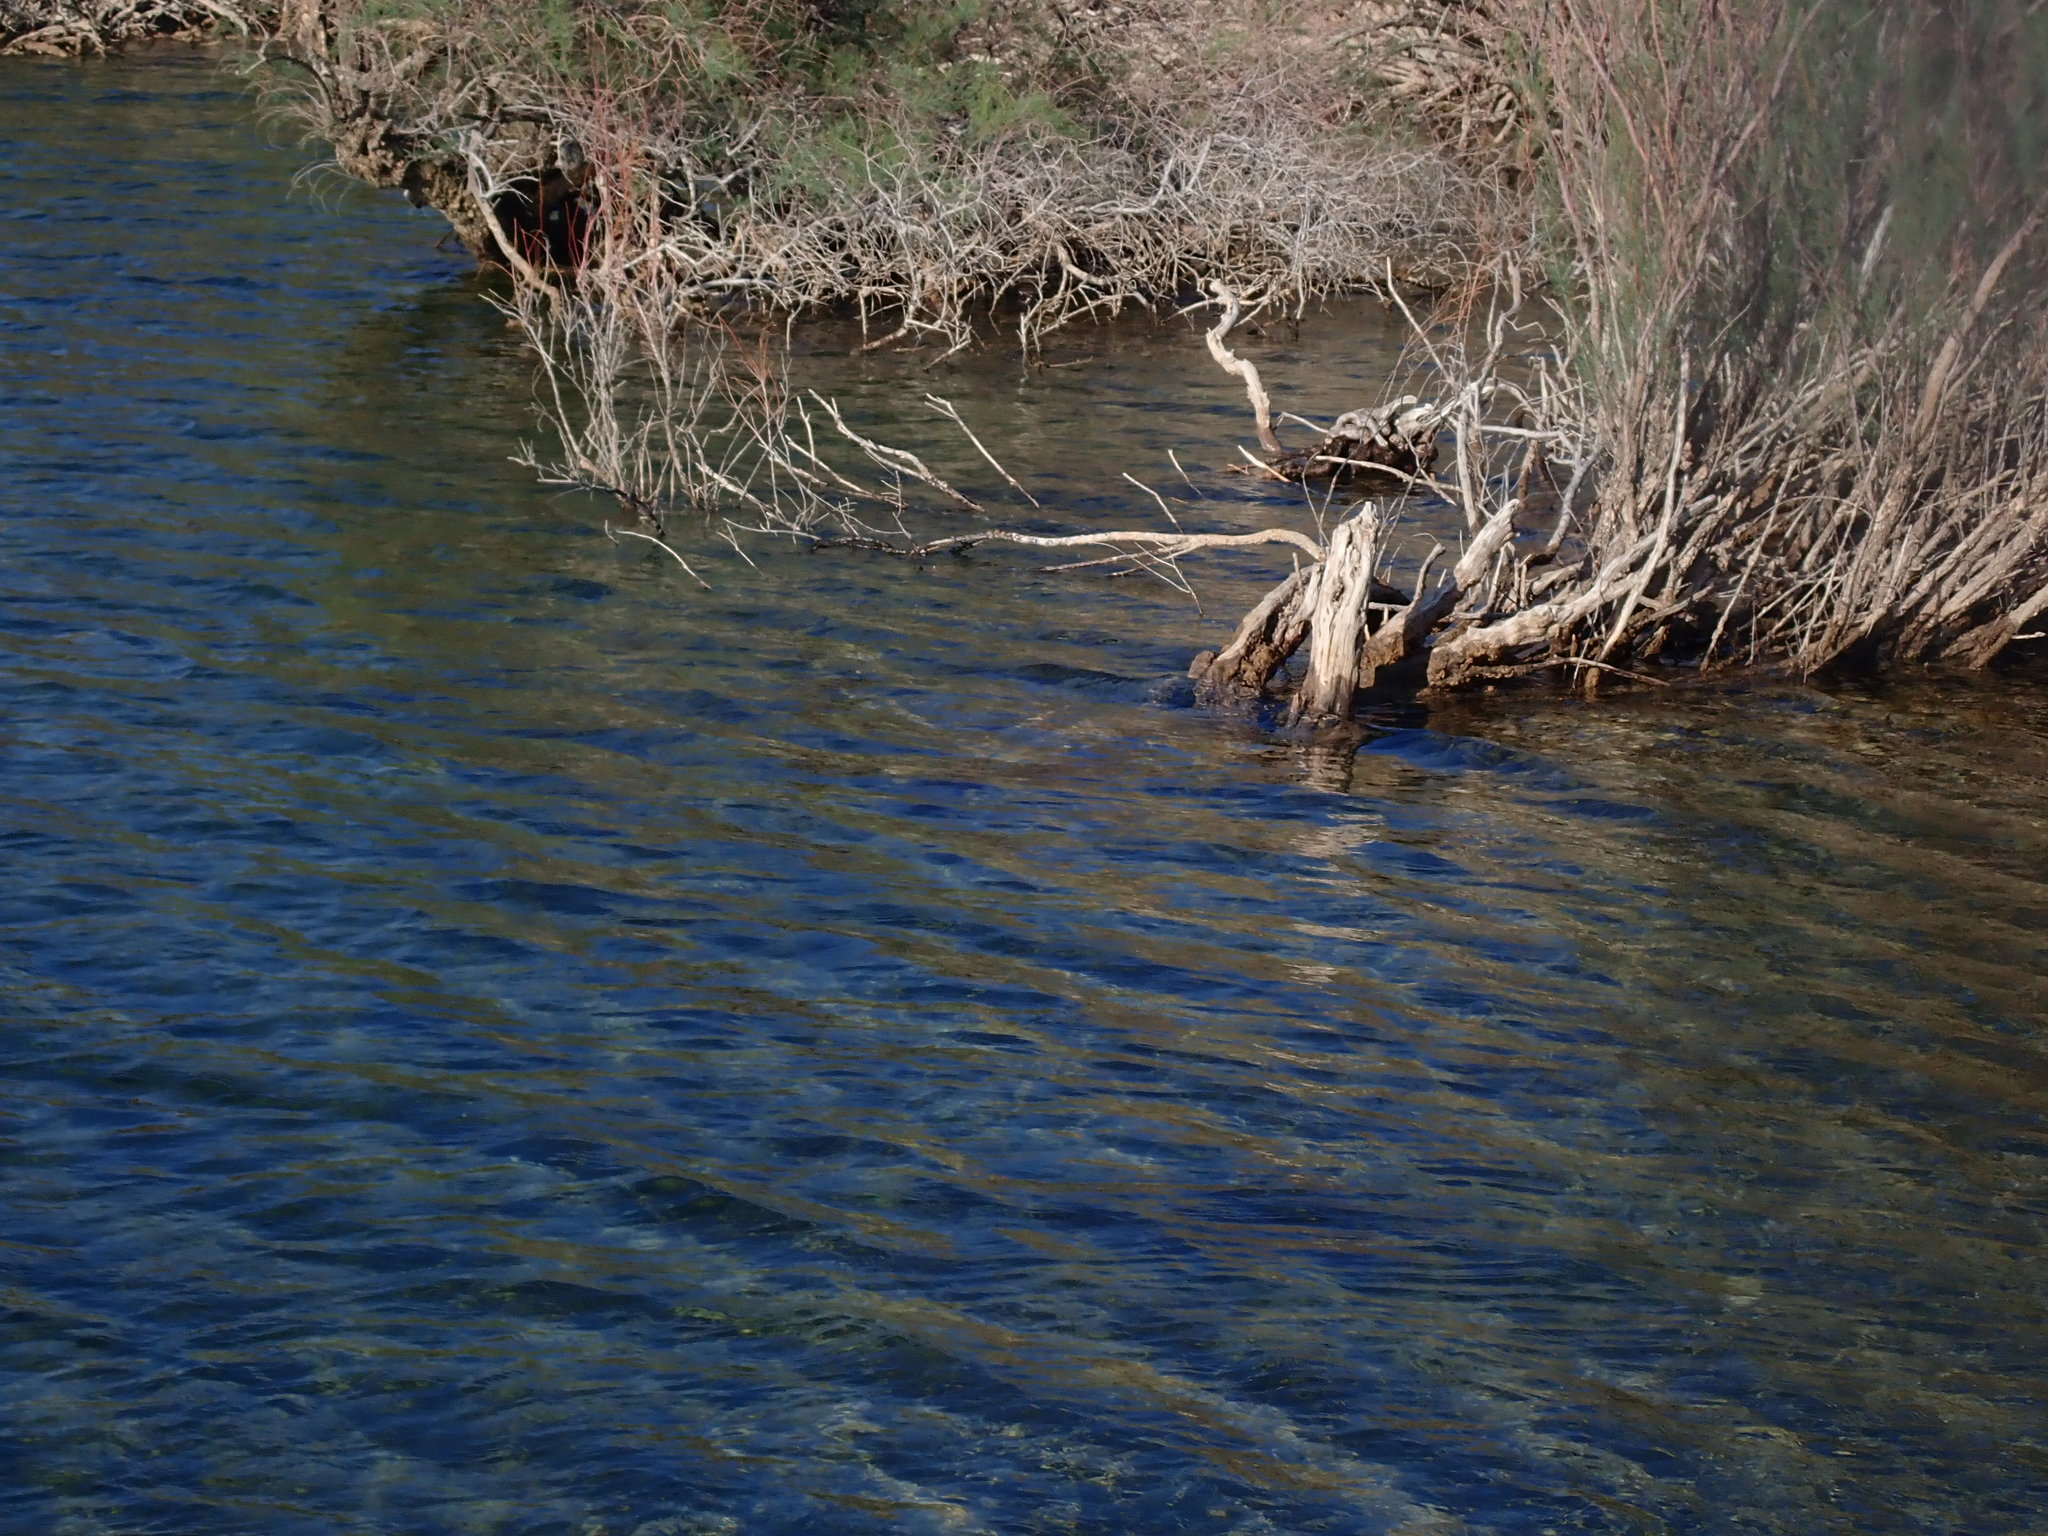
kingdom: Animalia
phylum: Chordata
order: Perciformes
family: Centrarchidae
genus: Micropterus
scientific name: Micropterus dolomieu
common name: Smallmouth bass
